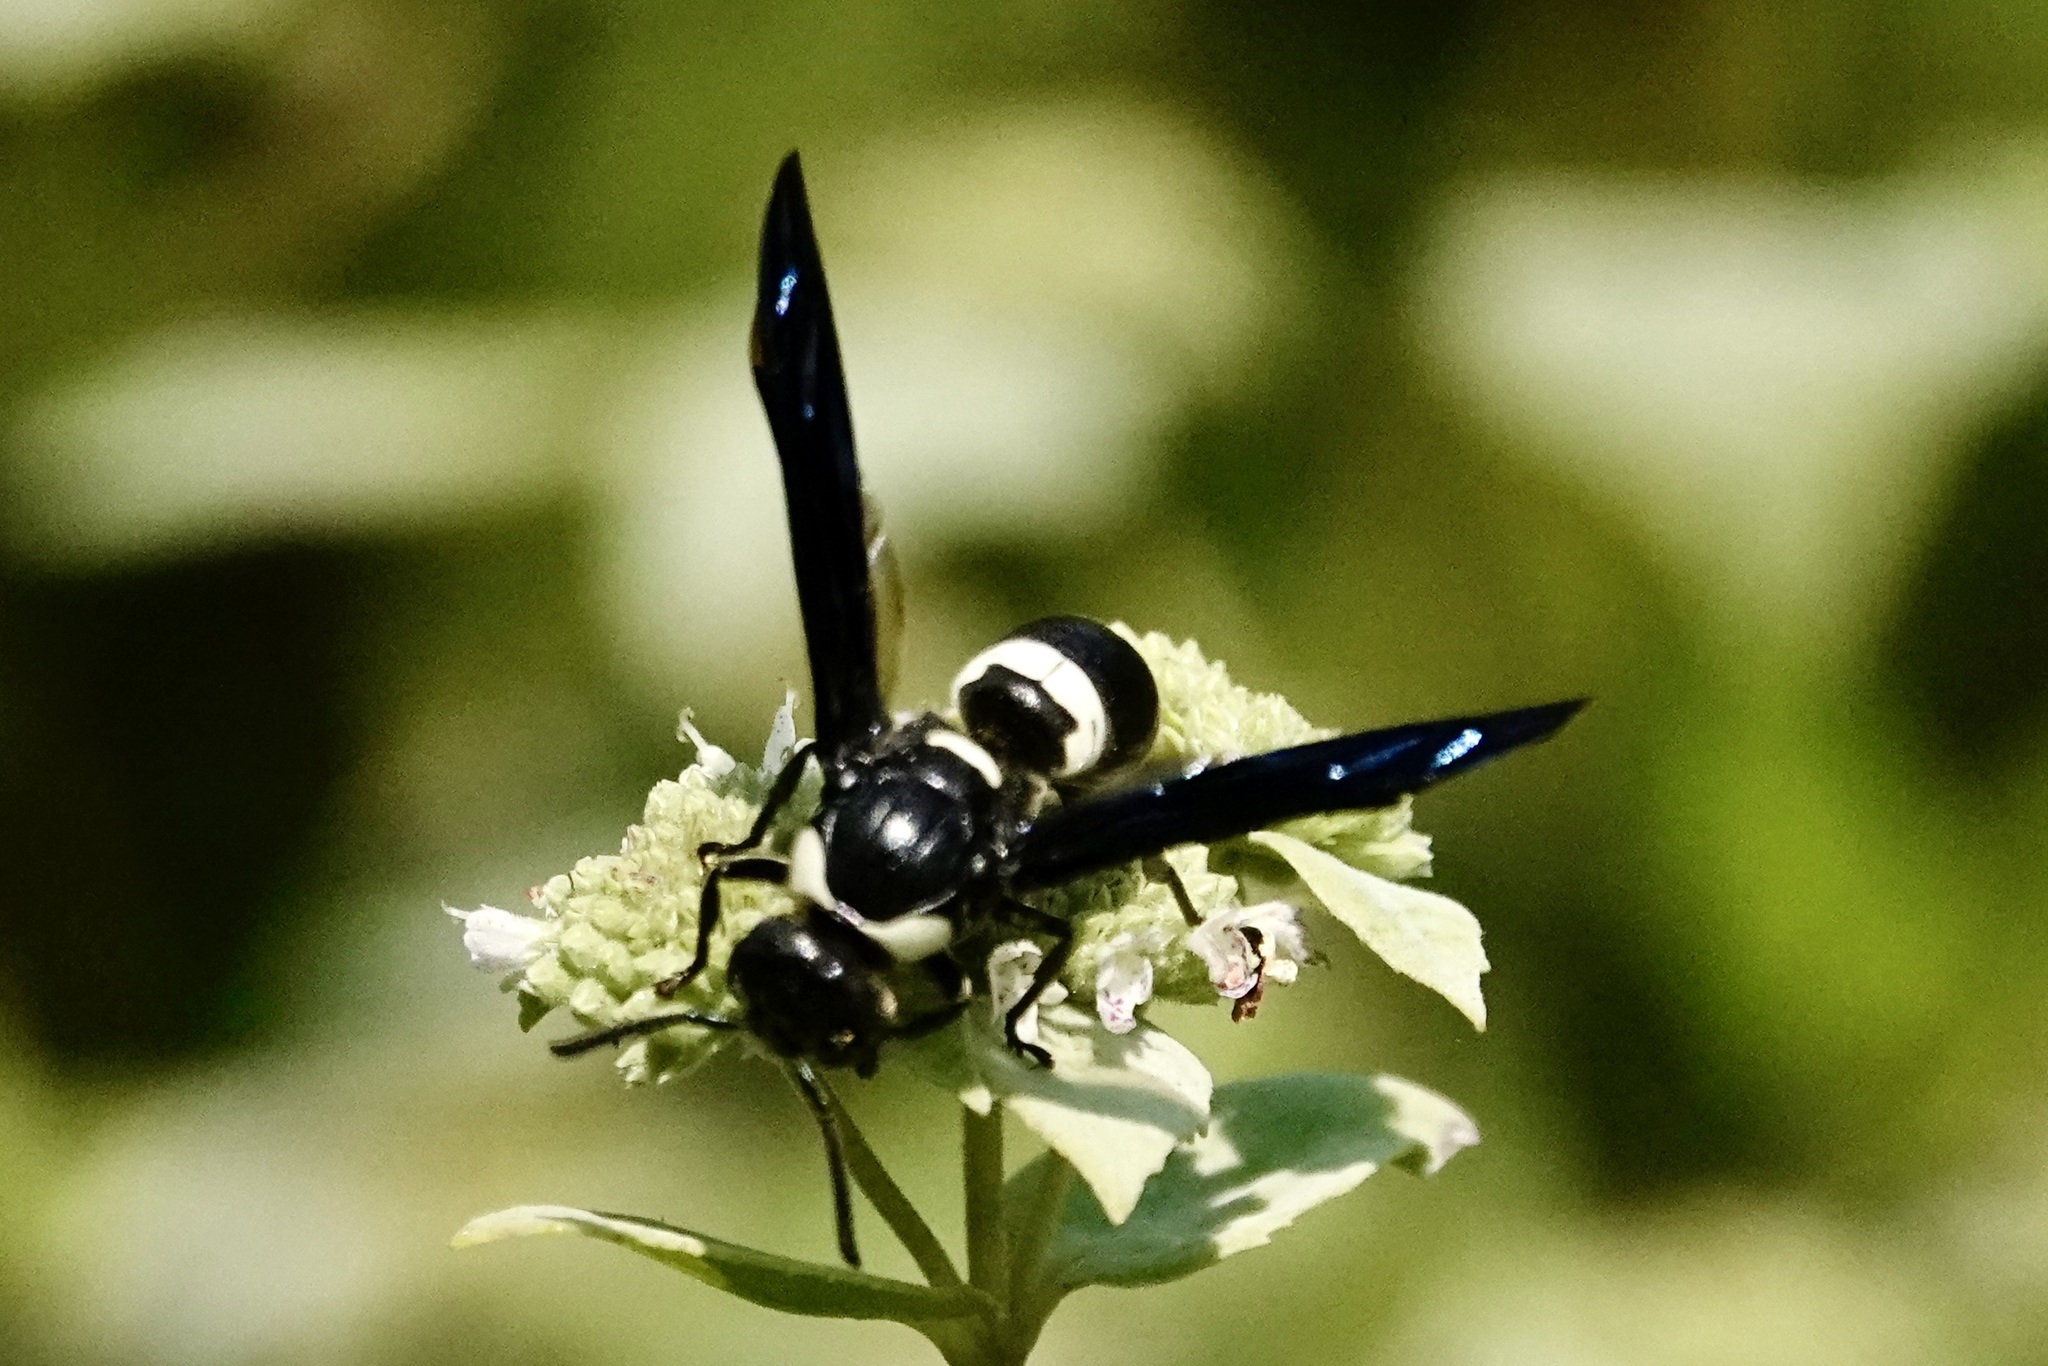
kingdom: Animalia
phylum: Arthropoda
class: Insecta
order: Hymenoptera
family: Eumenidae
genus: Monobia
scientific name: Monobia quadridens
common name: Four-toothed mason wasp
